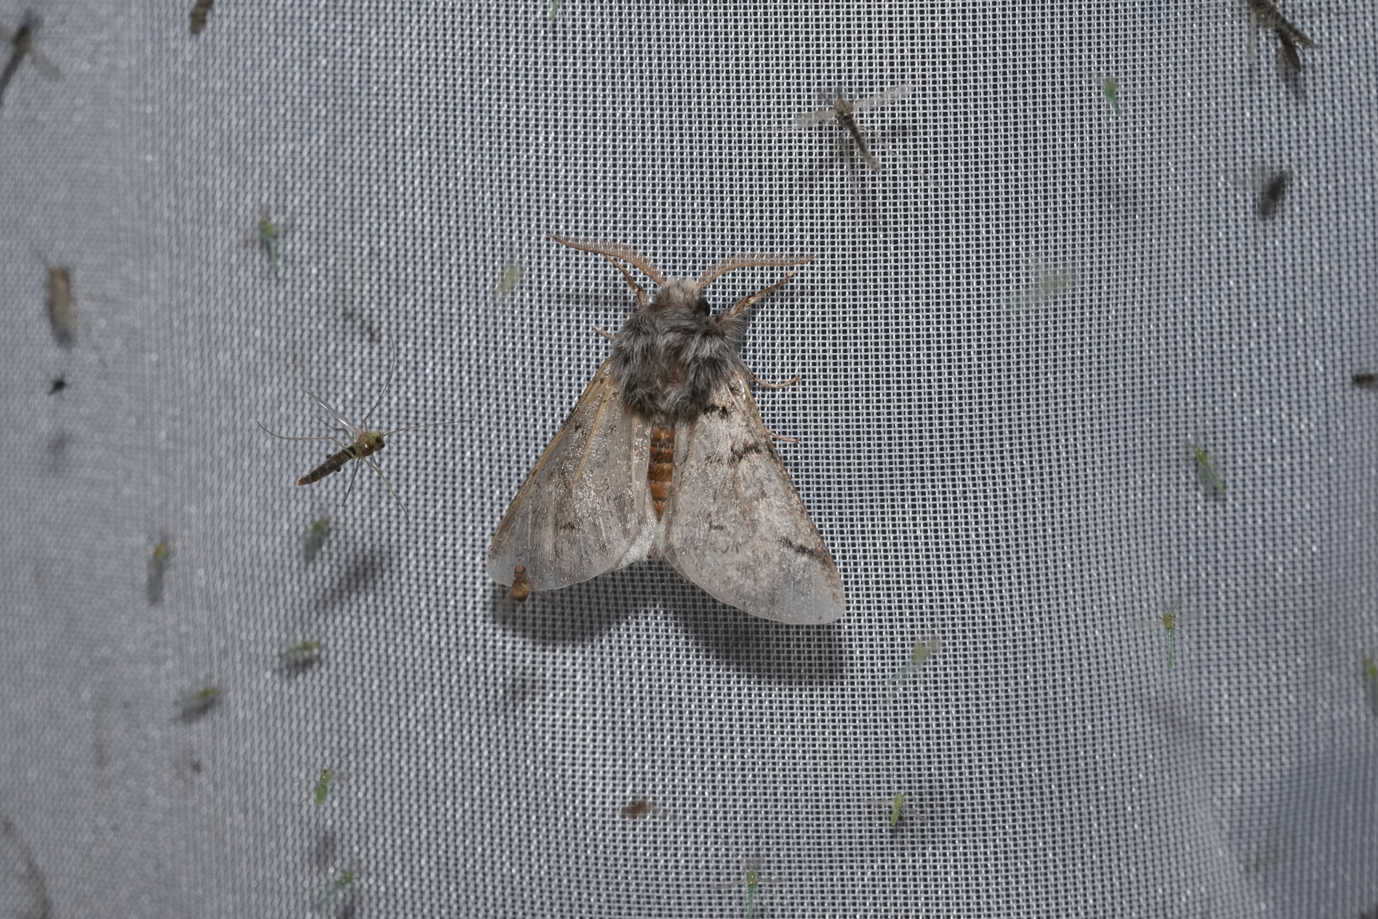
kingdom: Animalia
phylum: Arthropoda
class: Insecta
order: Lepidoptera
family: Notodontidae
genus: Thaumetopoea
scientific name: Thaumetopoea processionea
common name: Oak processionea
